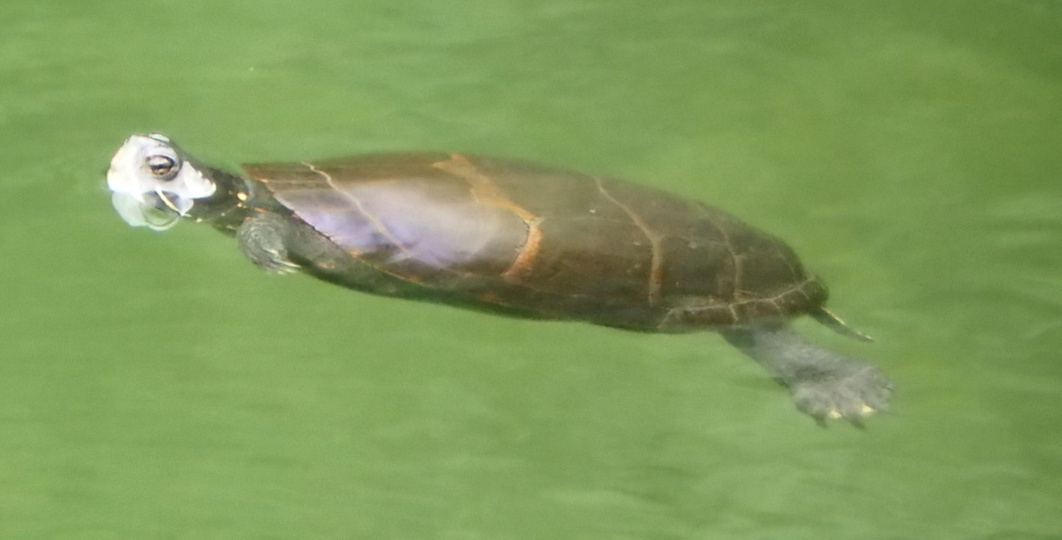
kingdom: Animalia
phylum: Chordata
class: Testudines
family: Emydidae
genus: Chrysemys
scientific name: Chrysemys picta
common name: Painted turtle
